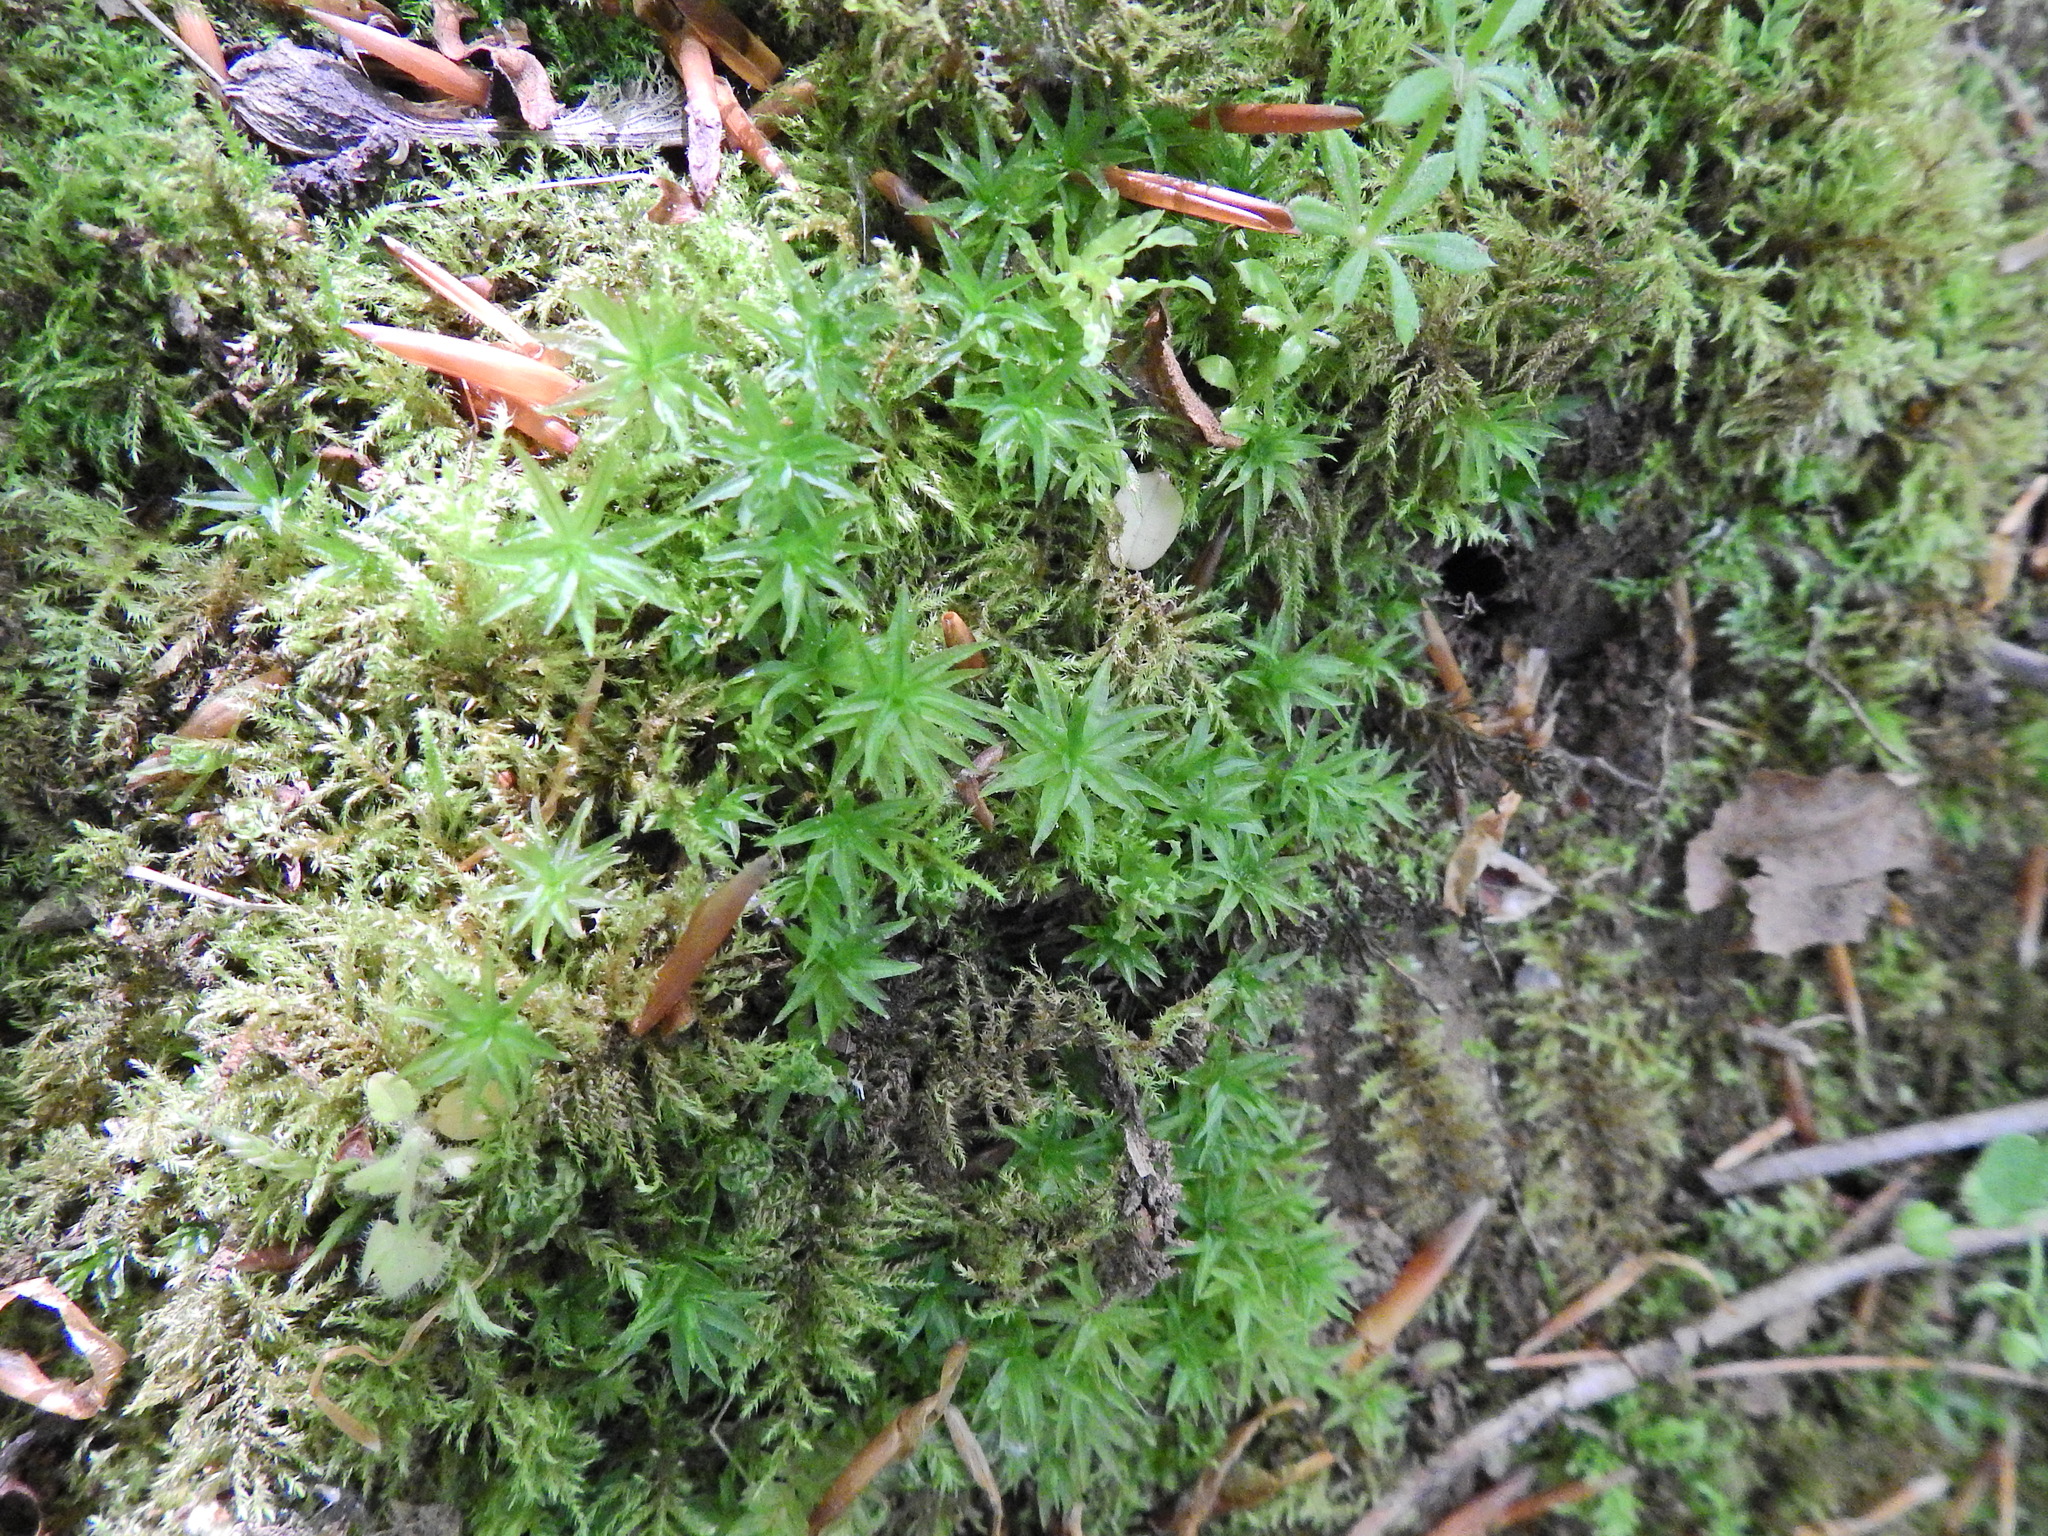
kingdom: Plantae
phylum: Bryophyta
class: Polytrichopsida
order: Polytrichales
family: Polytrichaceae
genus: Atrichum
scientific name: Atrichum undulatum
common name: Common smoothcap
